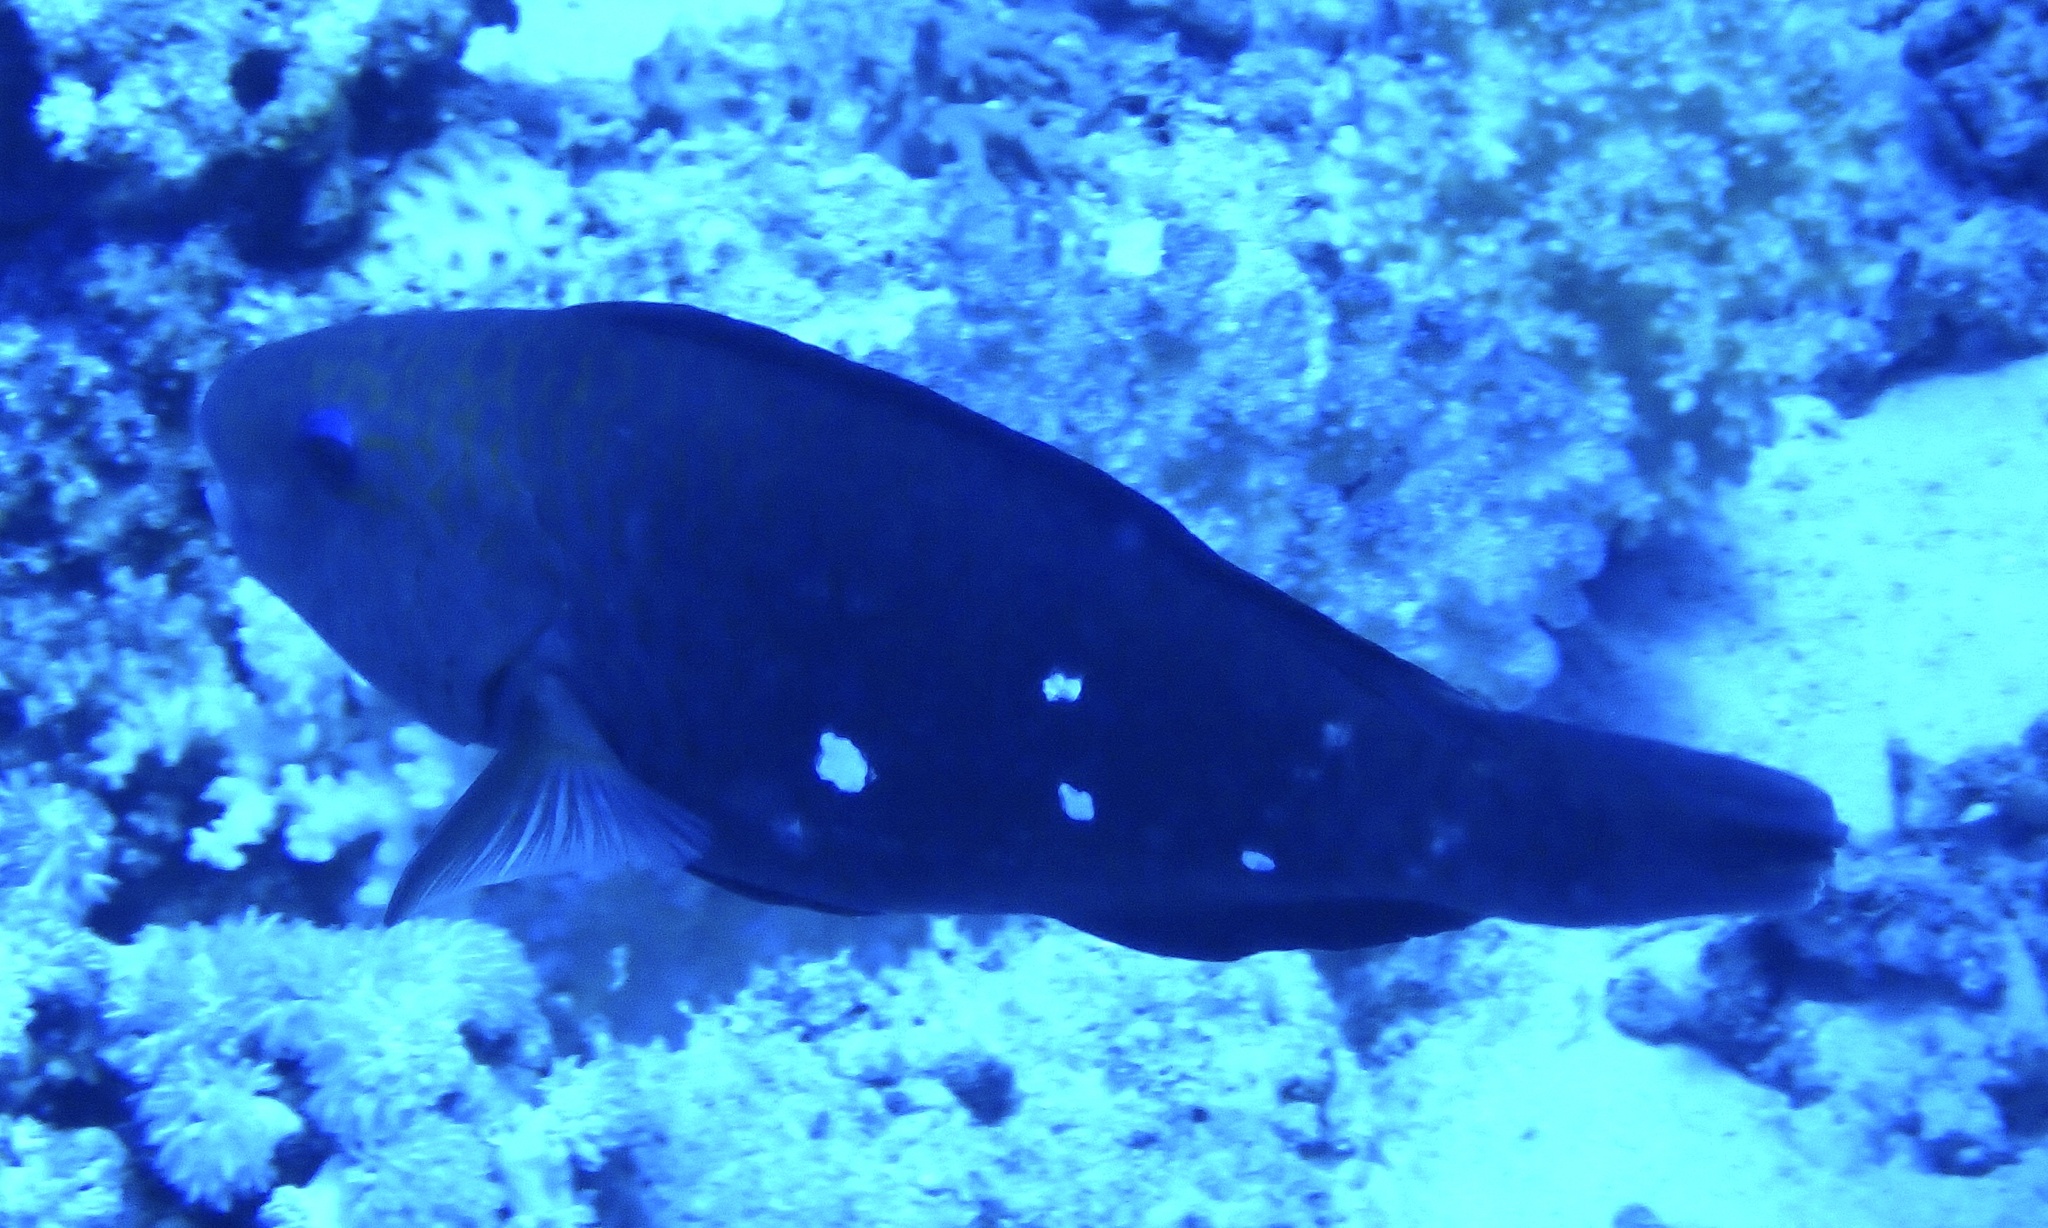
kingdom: Animalia
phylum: Chordata
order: Perciformes
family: Scaridae
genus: Chlorurus
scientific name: Chlorurus sordidus
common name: Bullethead parrotfish
